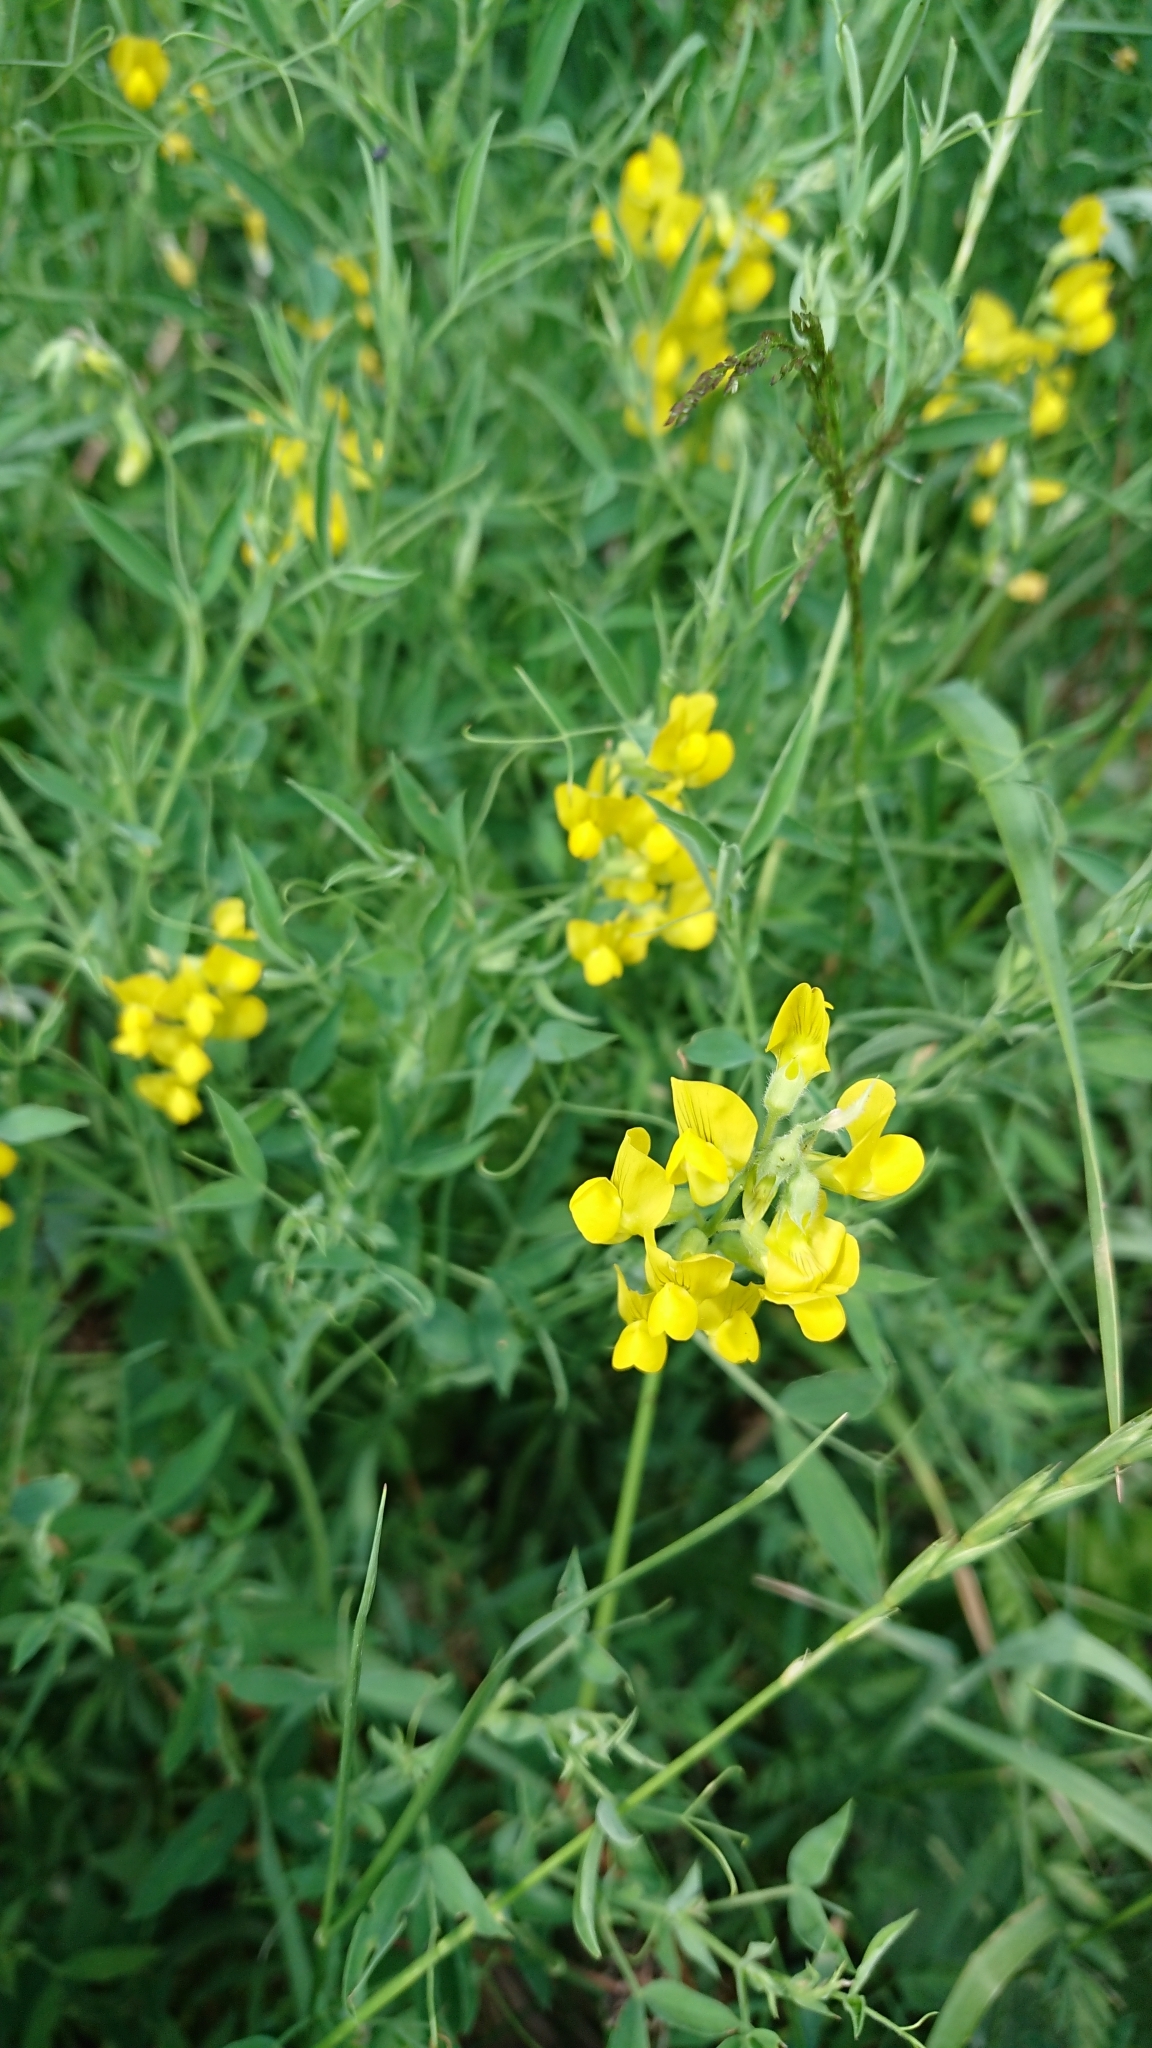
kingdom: Plantae
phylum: Tracheophyta
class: Magnoliopsida
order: Fabales
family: Fabaceae
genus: Lathyrus
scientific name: Lathyrus pratensis
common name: Meadow vetchling
